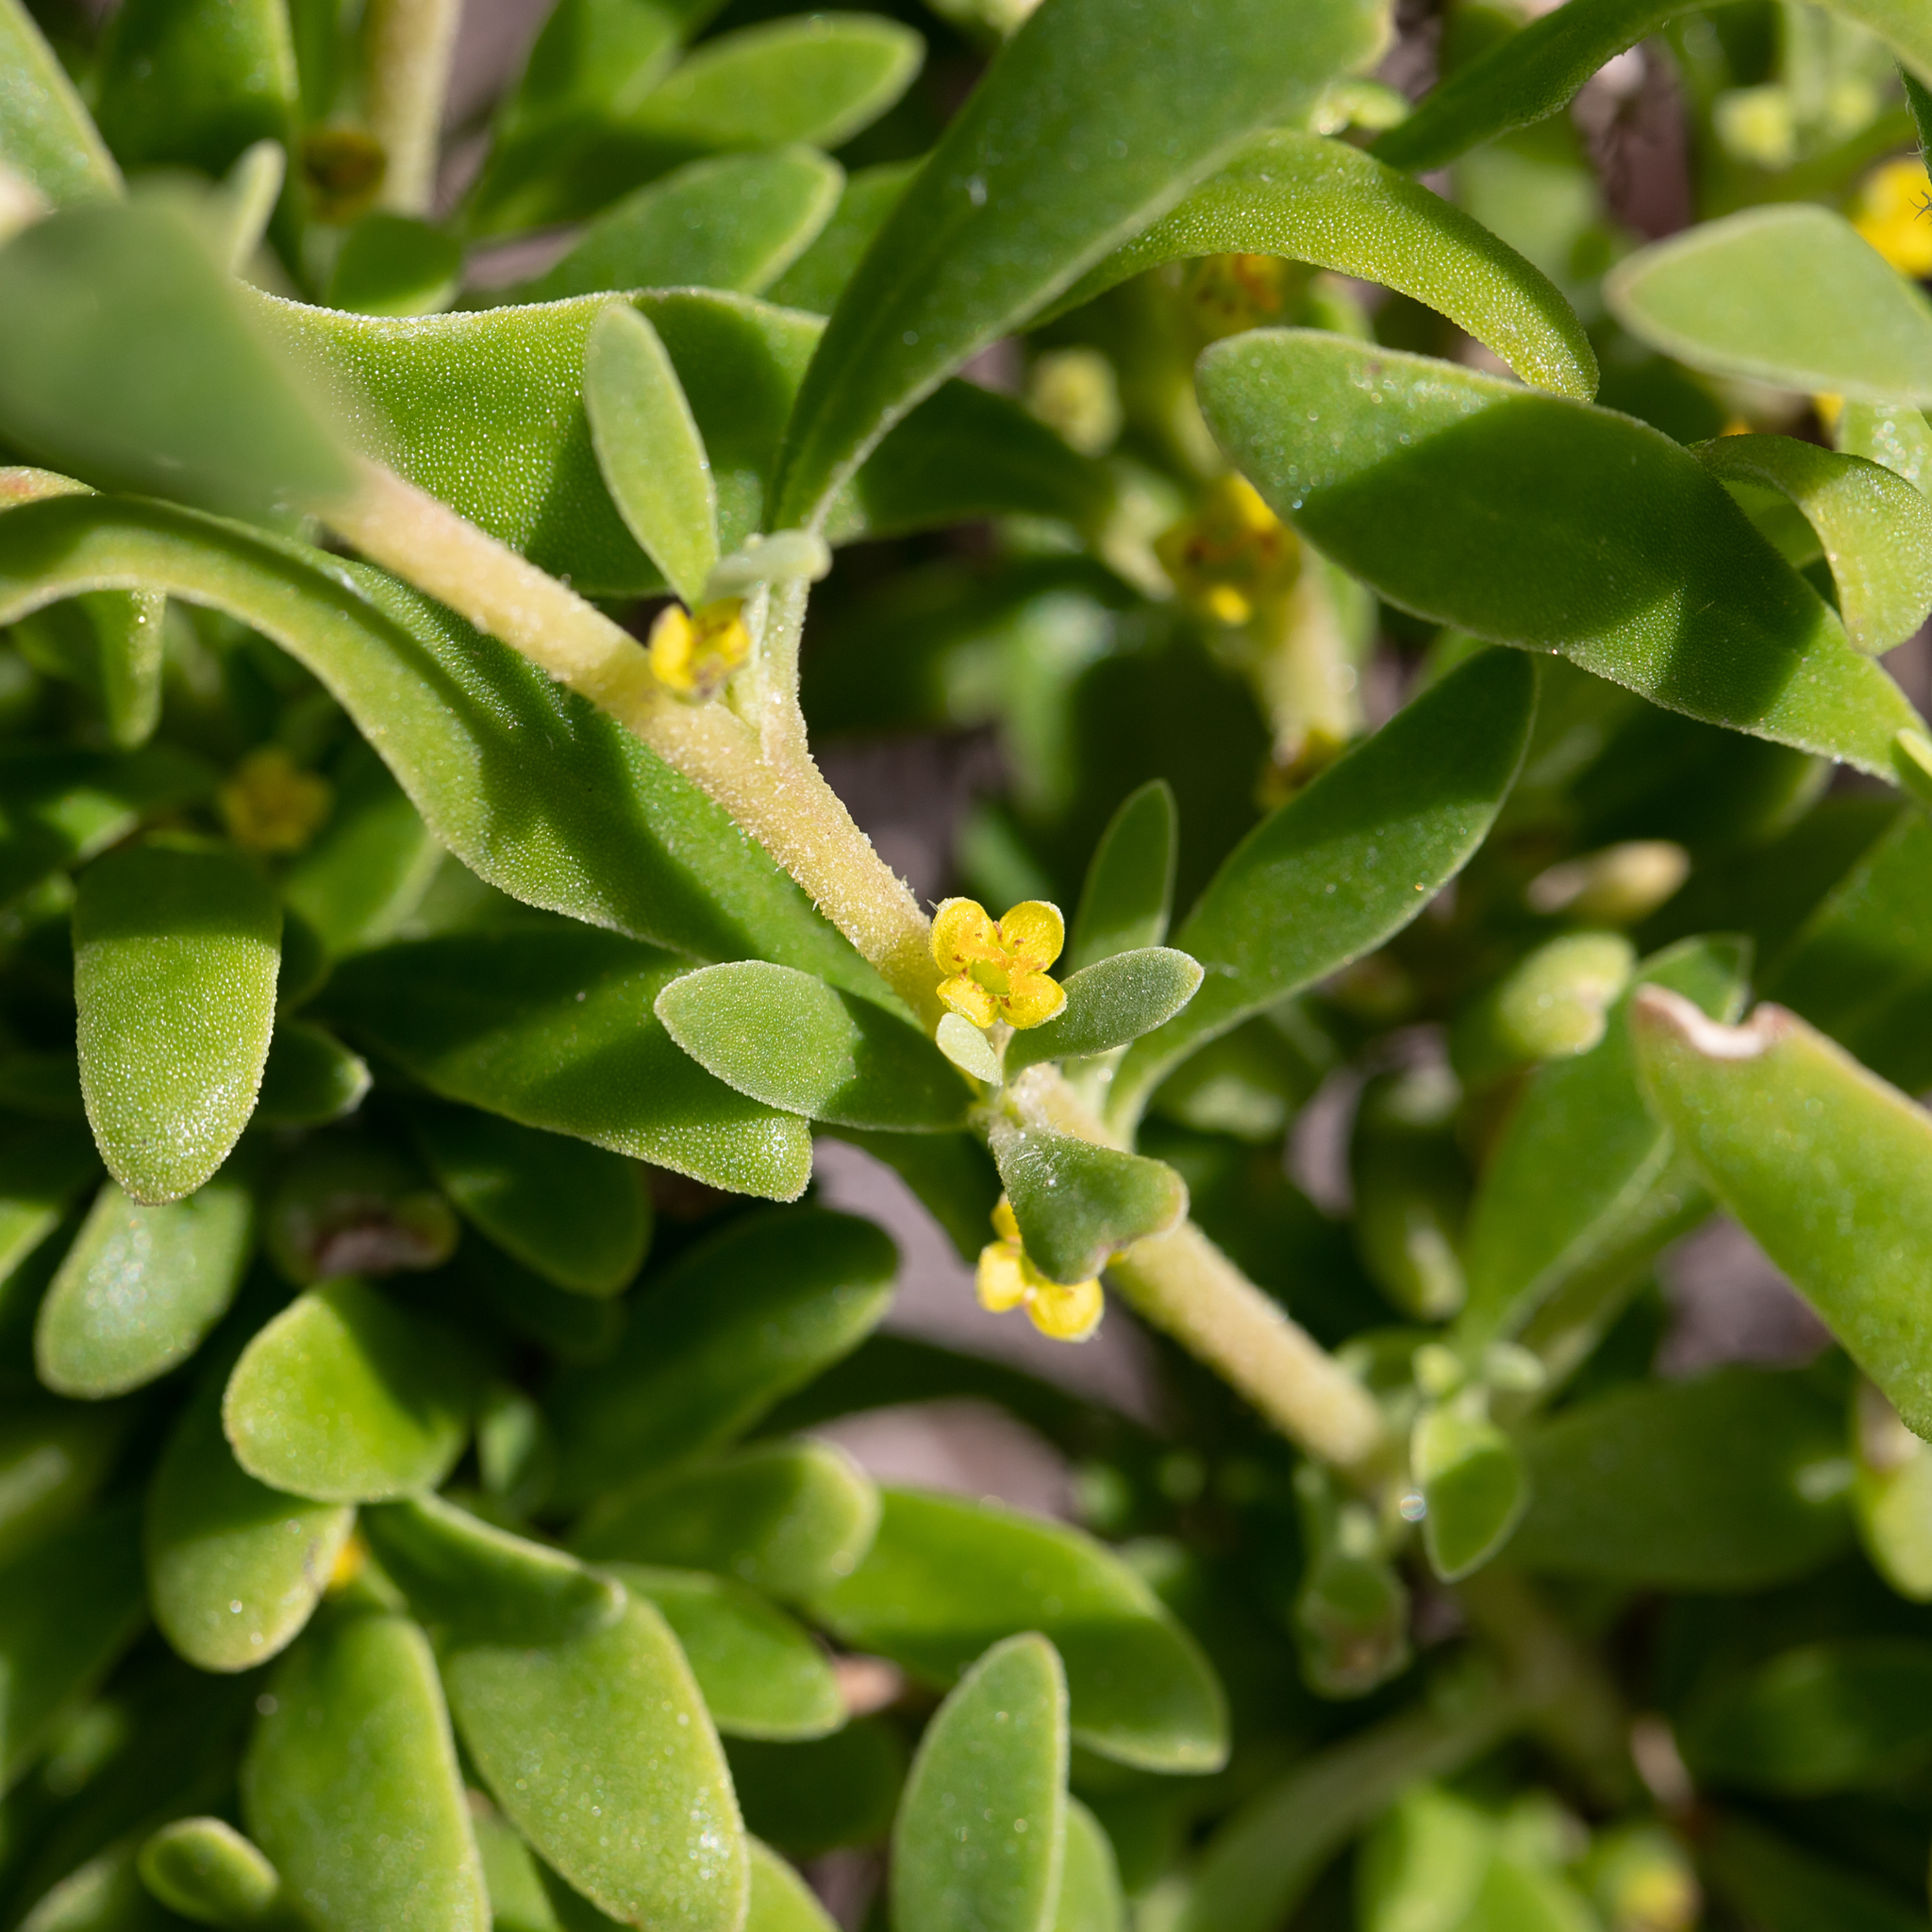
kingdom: Plantae
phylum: Tracheophyta
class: Magnoliopsida
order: Caryophyllales
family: Aizoaceae
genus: Tetragonia
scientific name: Tetragonia implexicoma
